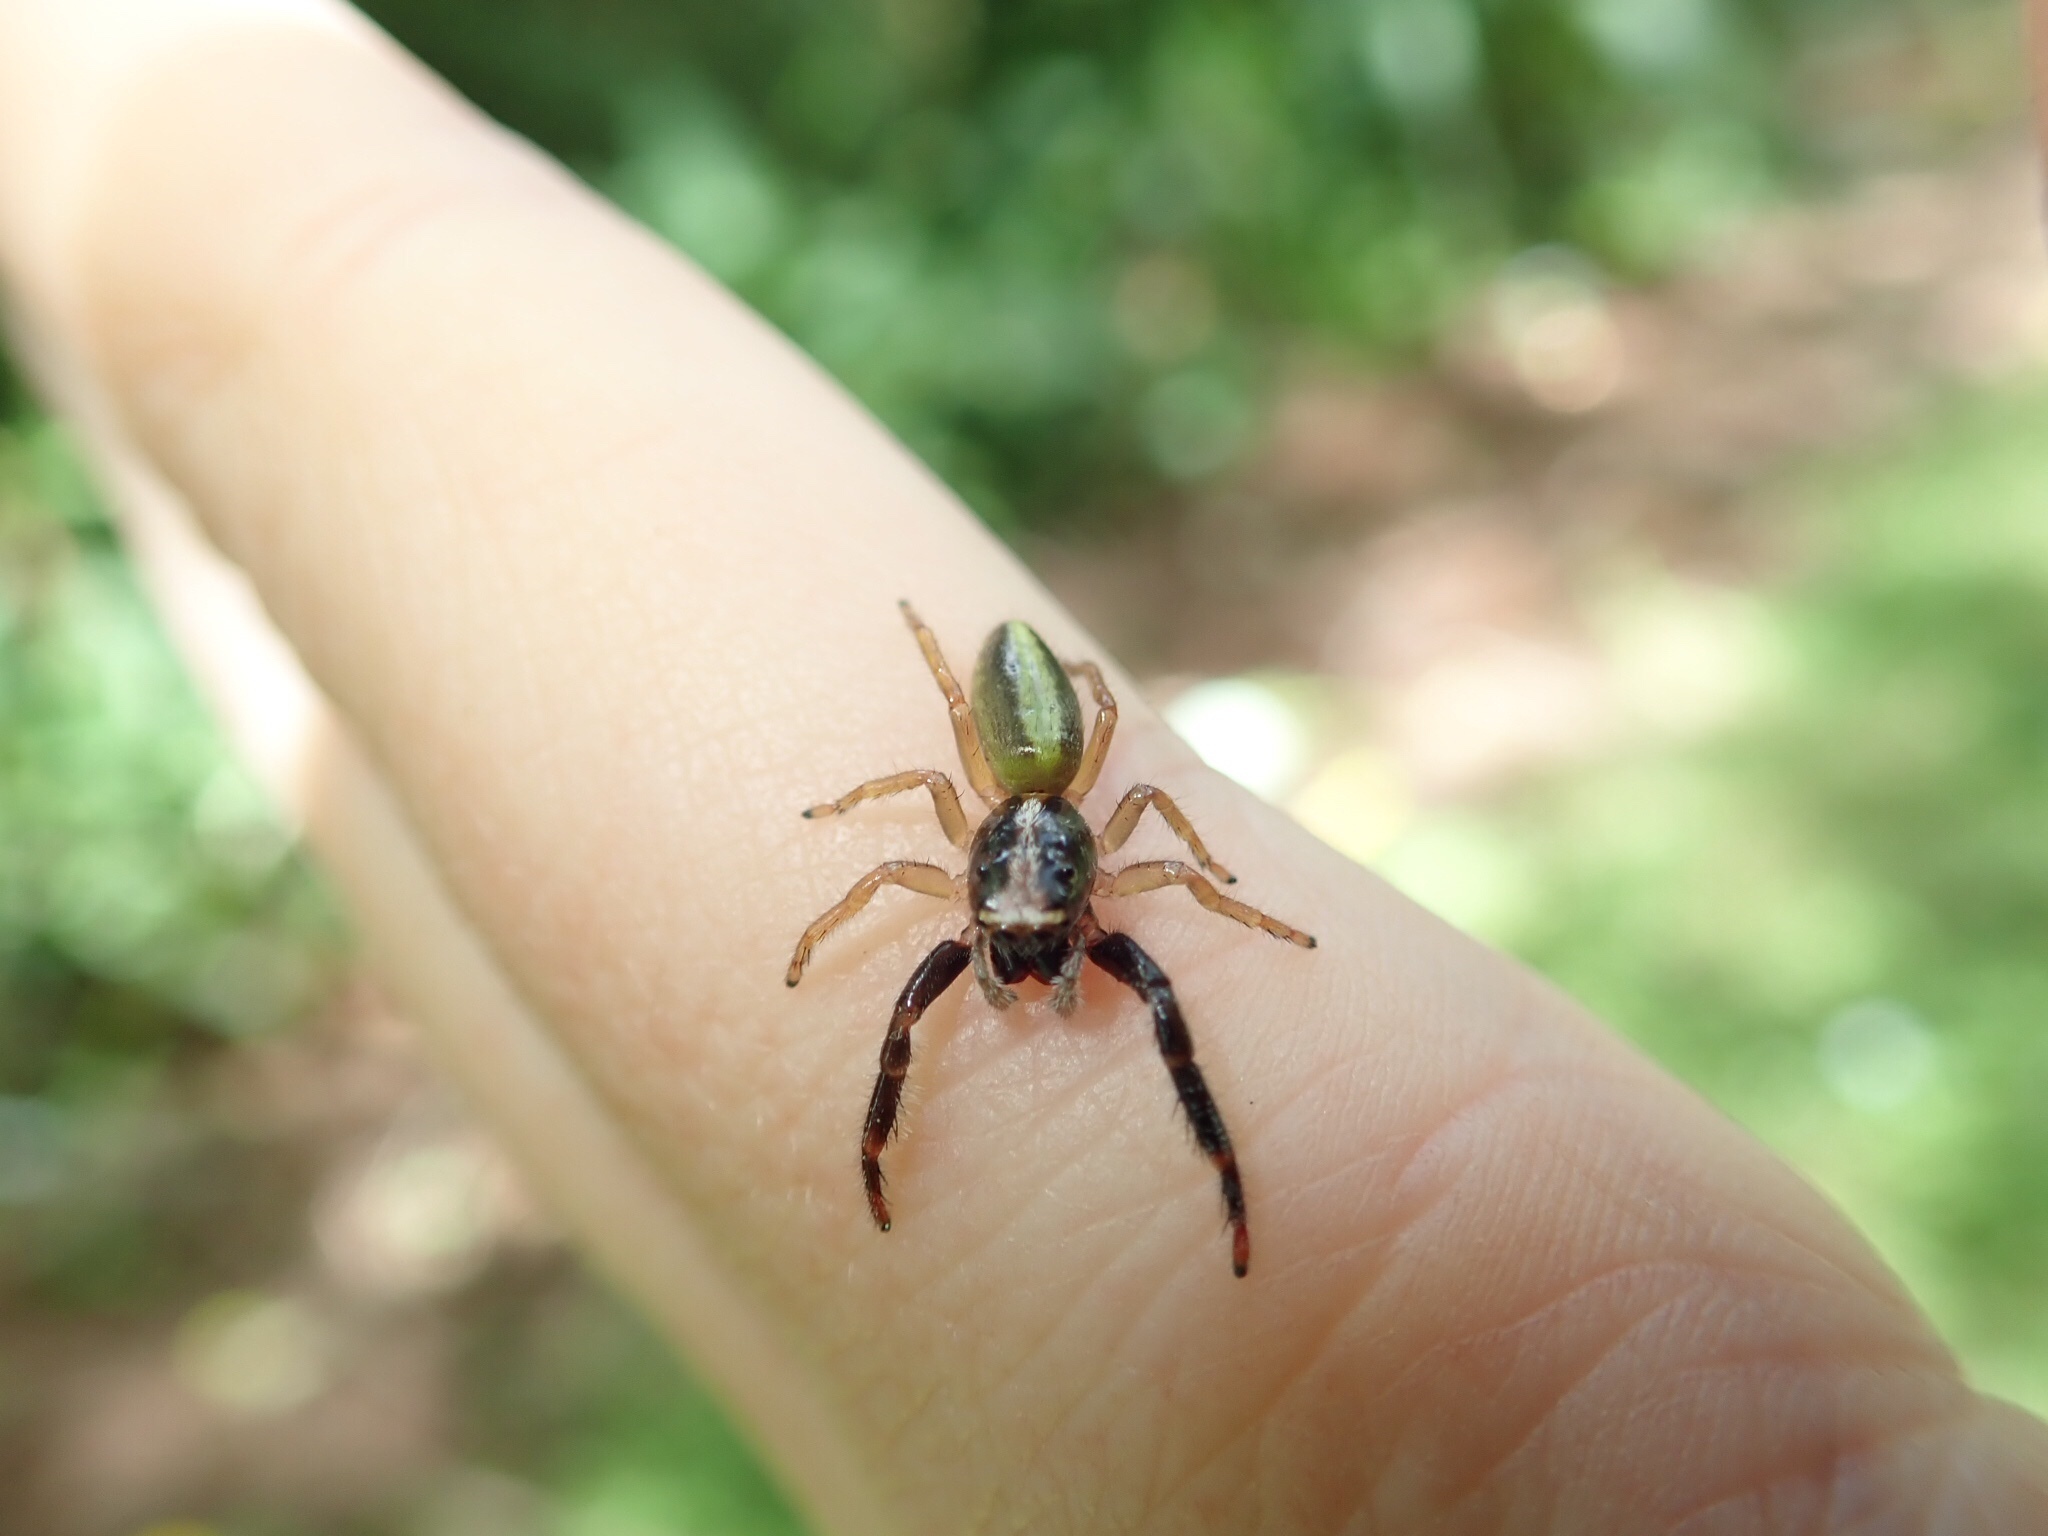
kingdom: Animalia
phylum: Arthropoda
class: Arachnida
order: Araneae
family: Salticidae
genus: Trite
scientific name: Trite planiceps
